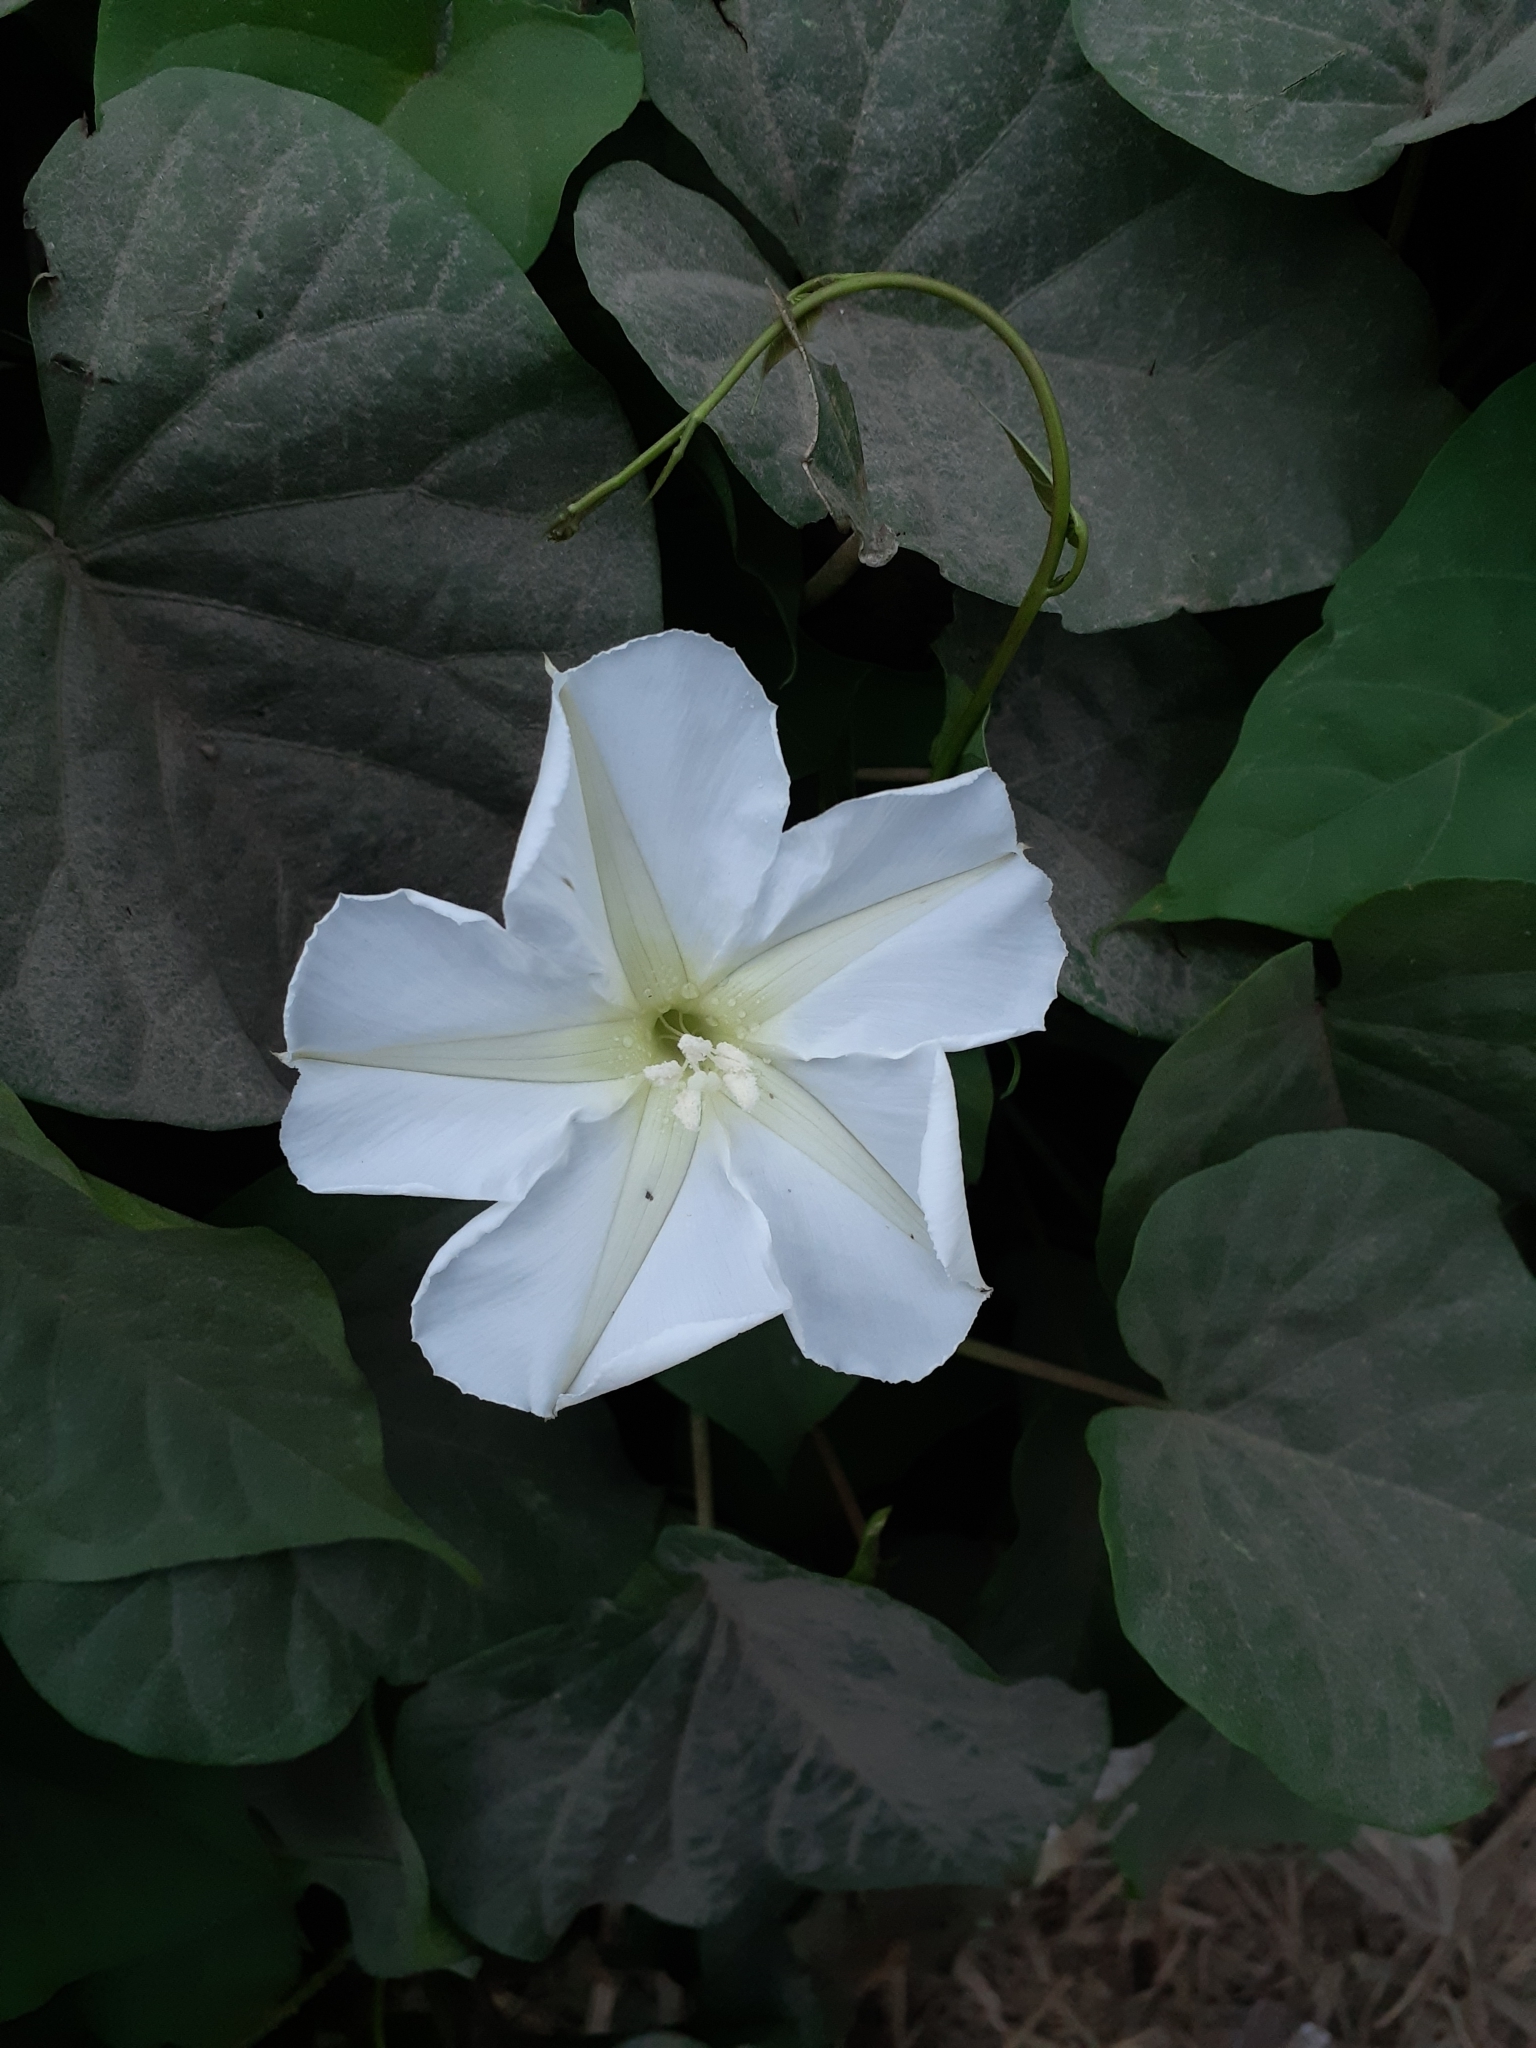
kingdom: Plantae
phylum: Tracheophyta
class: Magnoliopsida
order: Solanales
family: Convolvulaceae
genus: Ipomoea
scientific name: Ipomoea alba
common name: Moonflower
